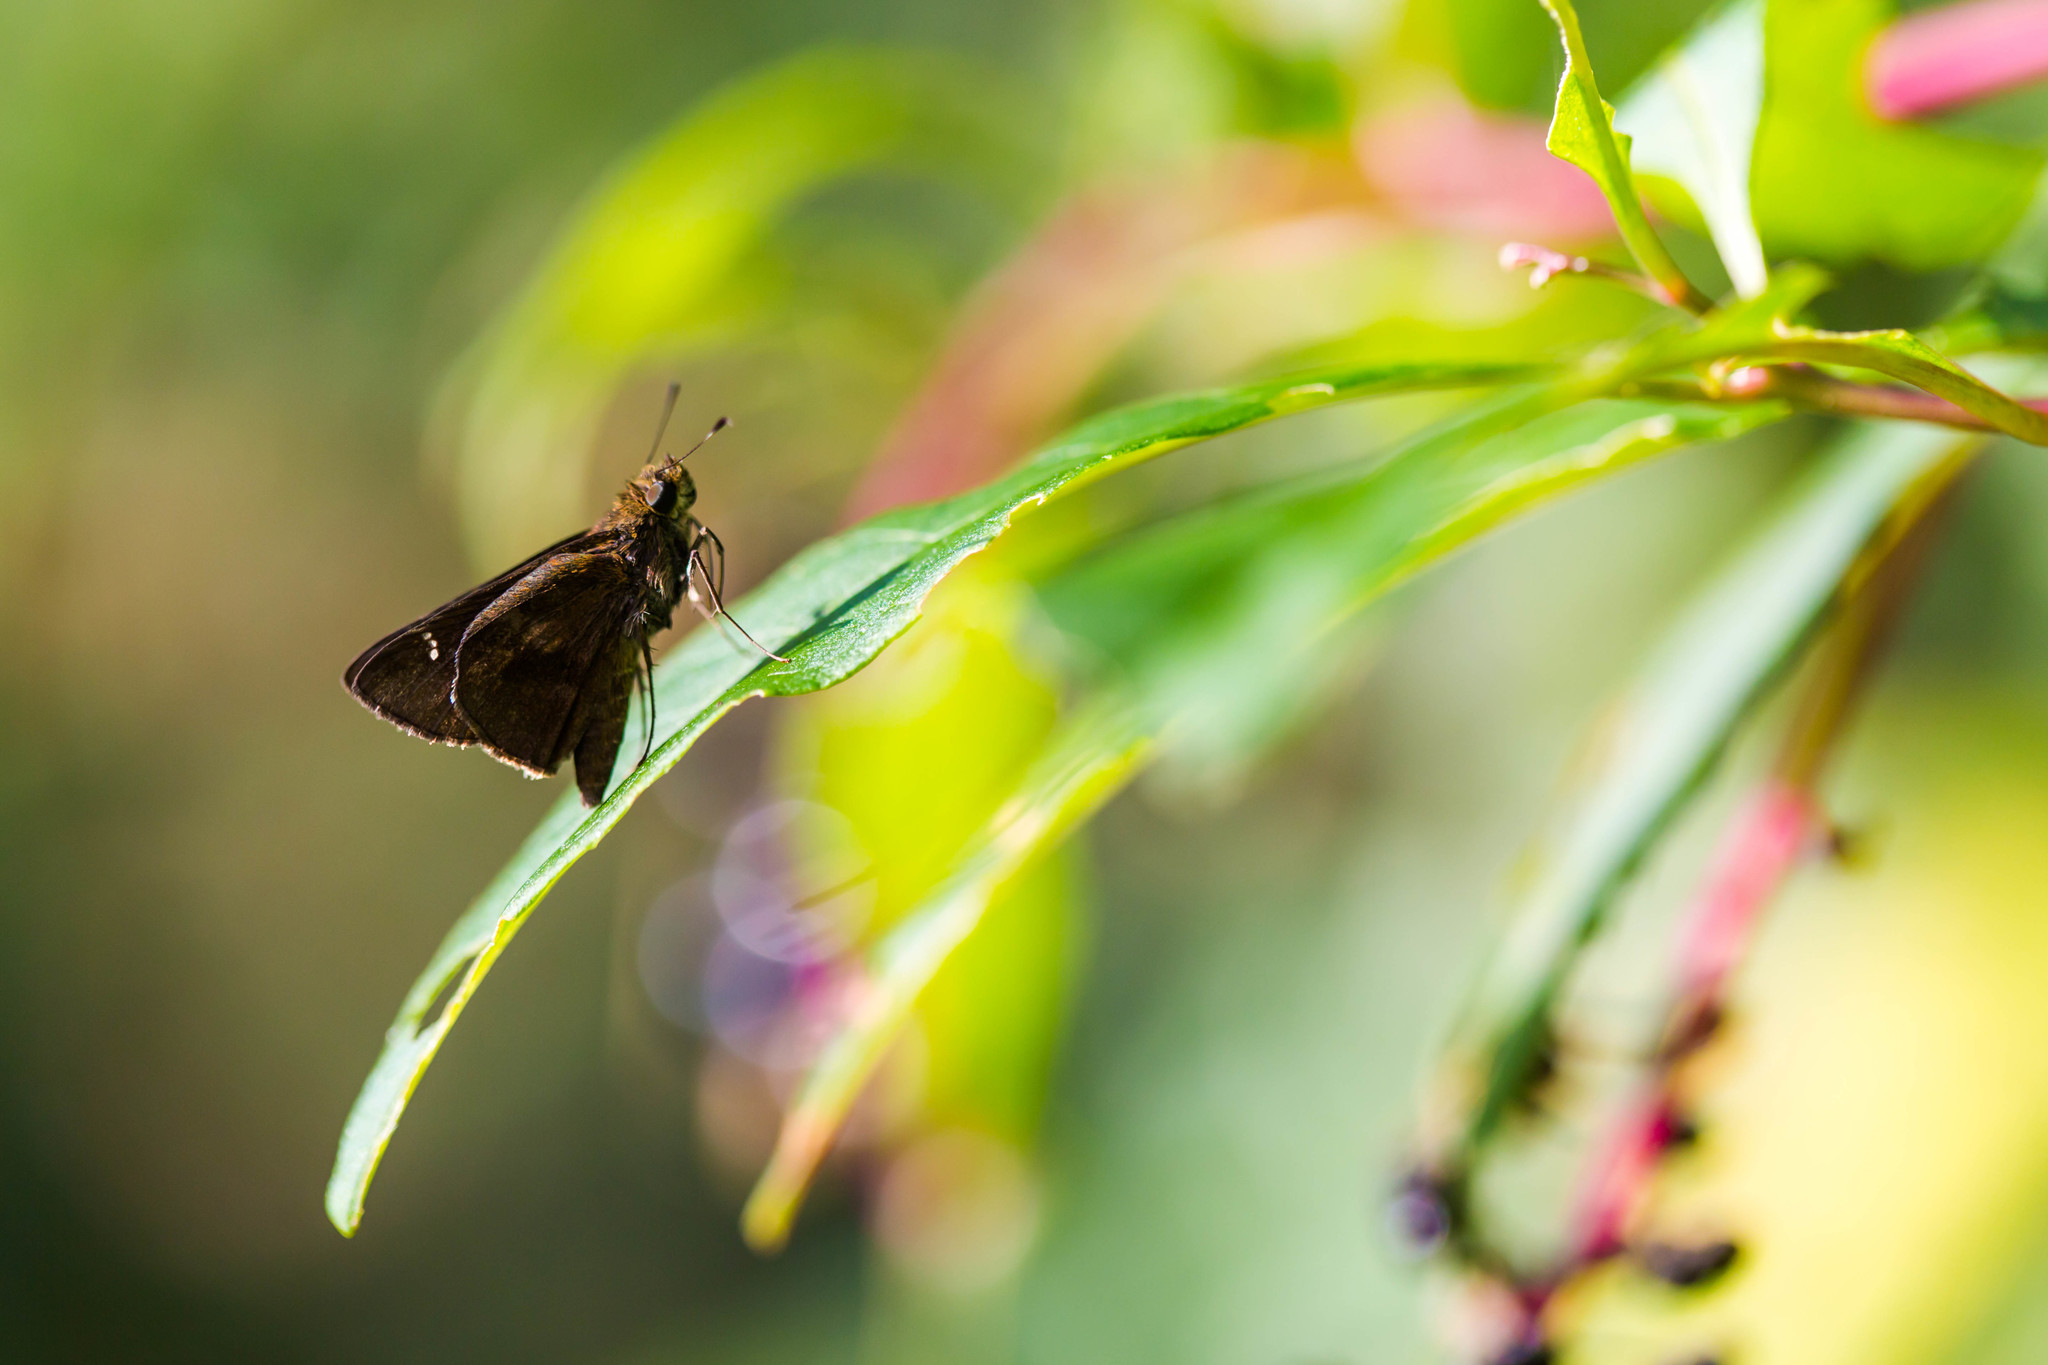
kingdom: Animalia
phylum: Arthropoda
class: Insecta
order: Lepidoptera
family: Hesperiidae
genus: Lerema
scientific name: Lerema accius
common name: Clouded skipper
